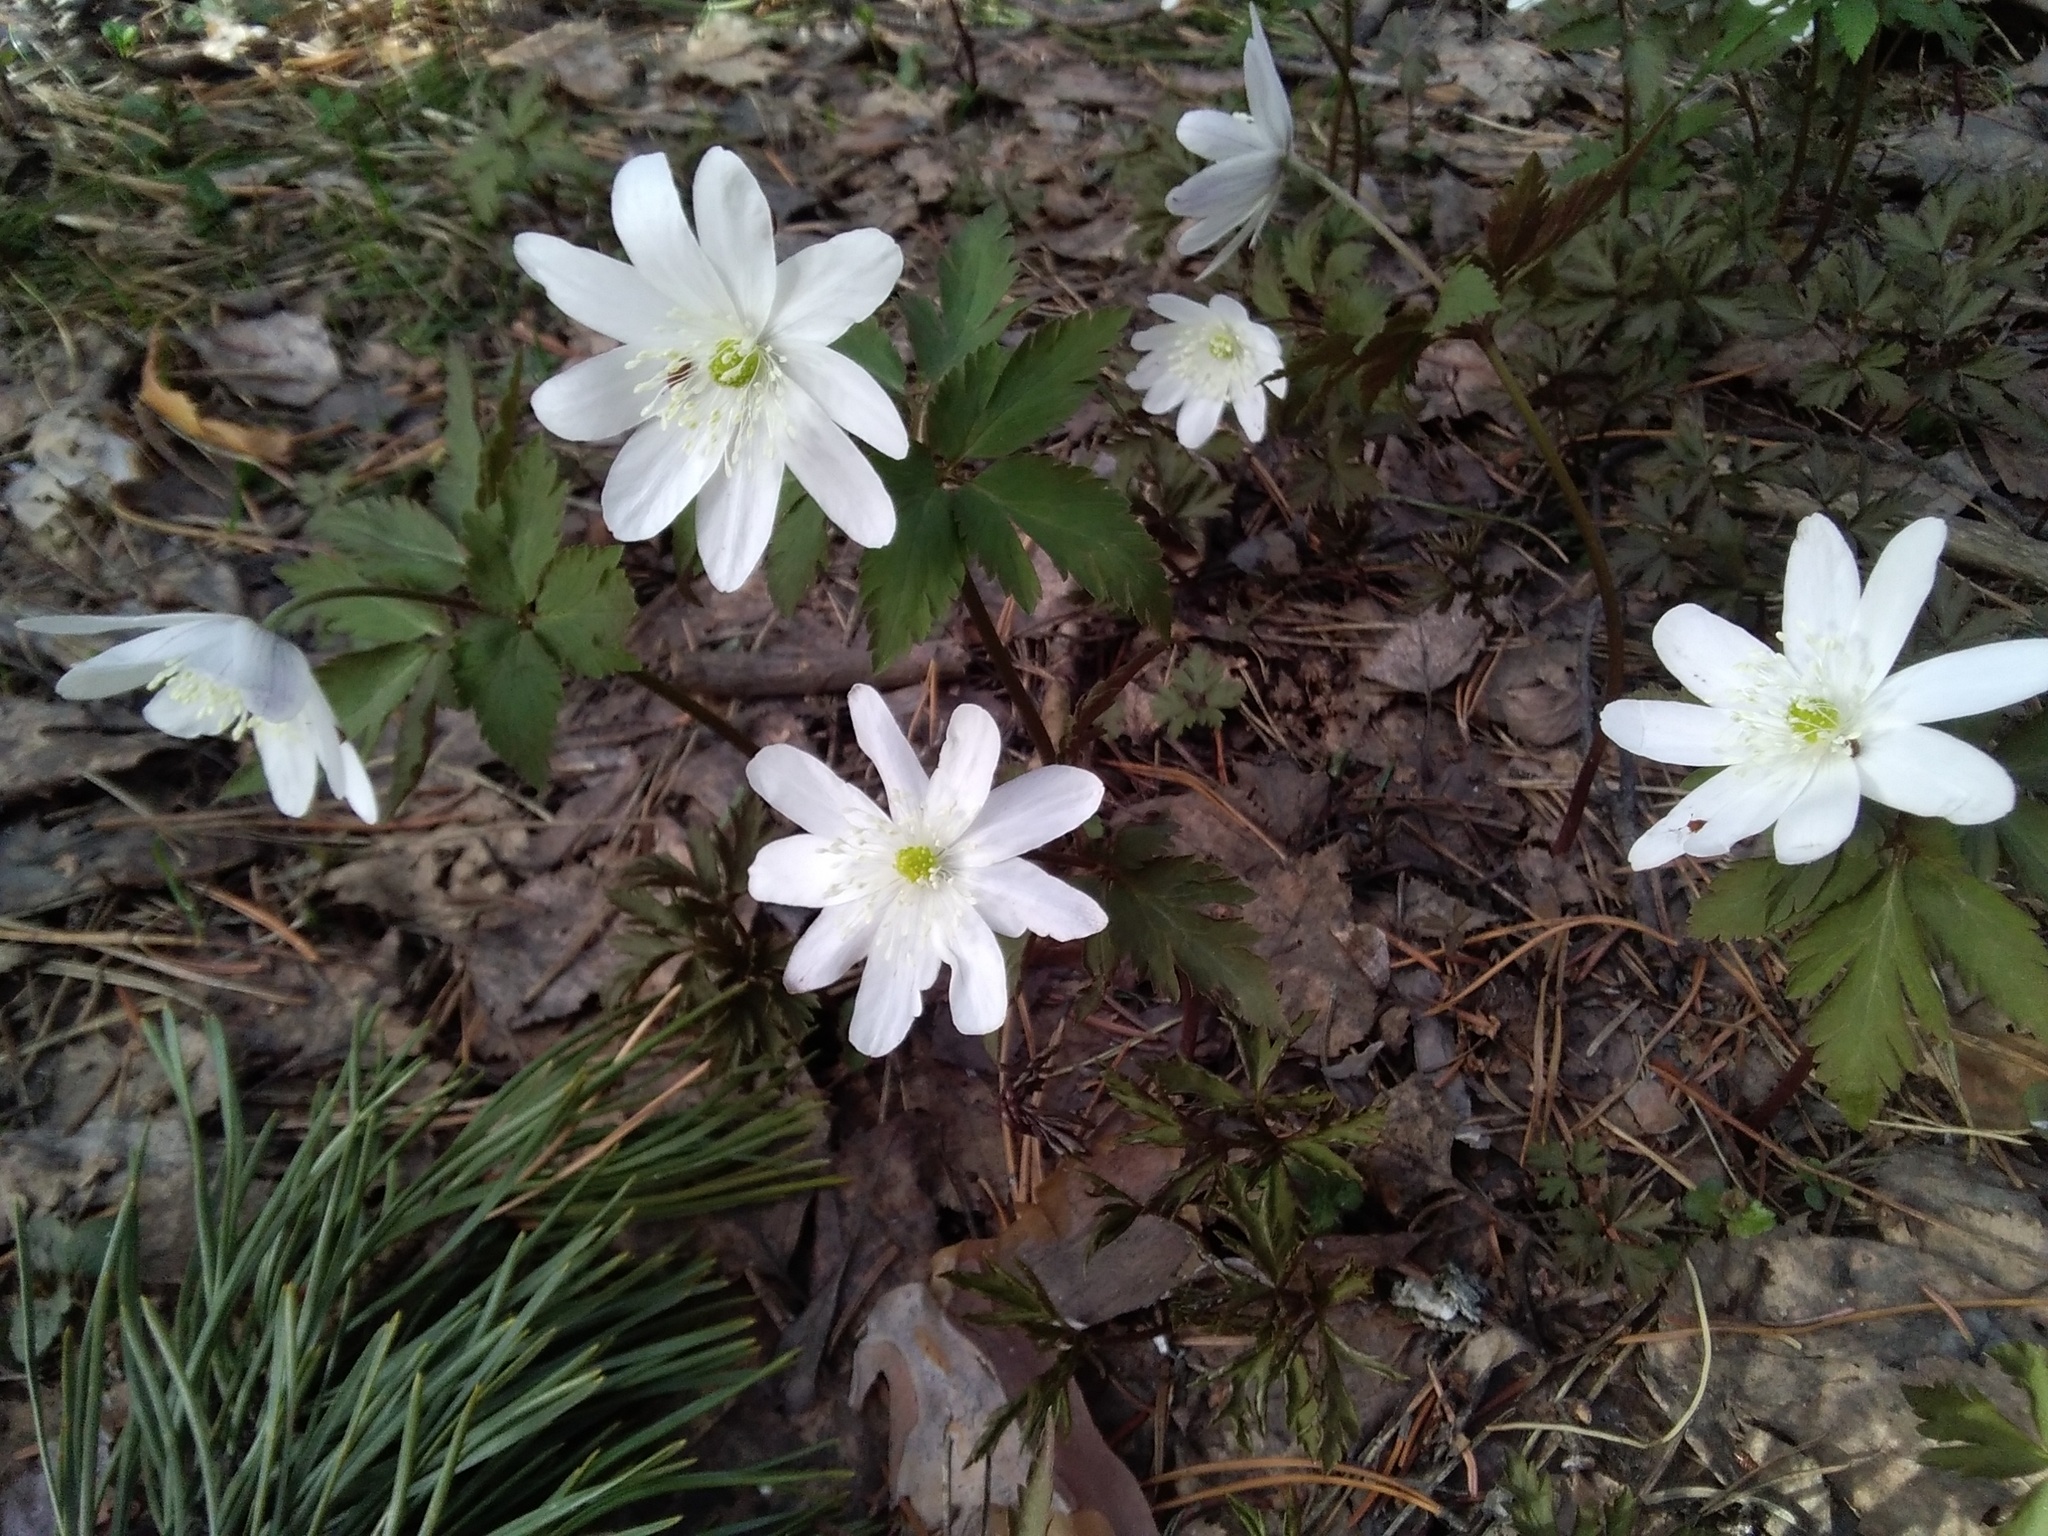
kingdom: Plantae
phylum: Tracheophyta
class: Magnoliopsida
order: Ranunculales
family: Ranunculaceae
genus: Anemone
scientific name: Anemone altaica
